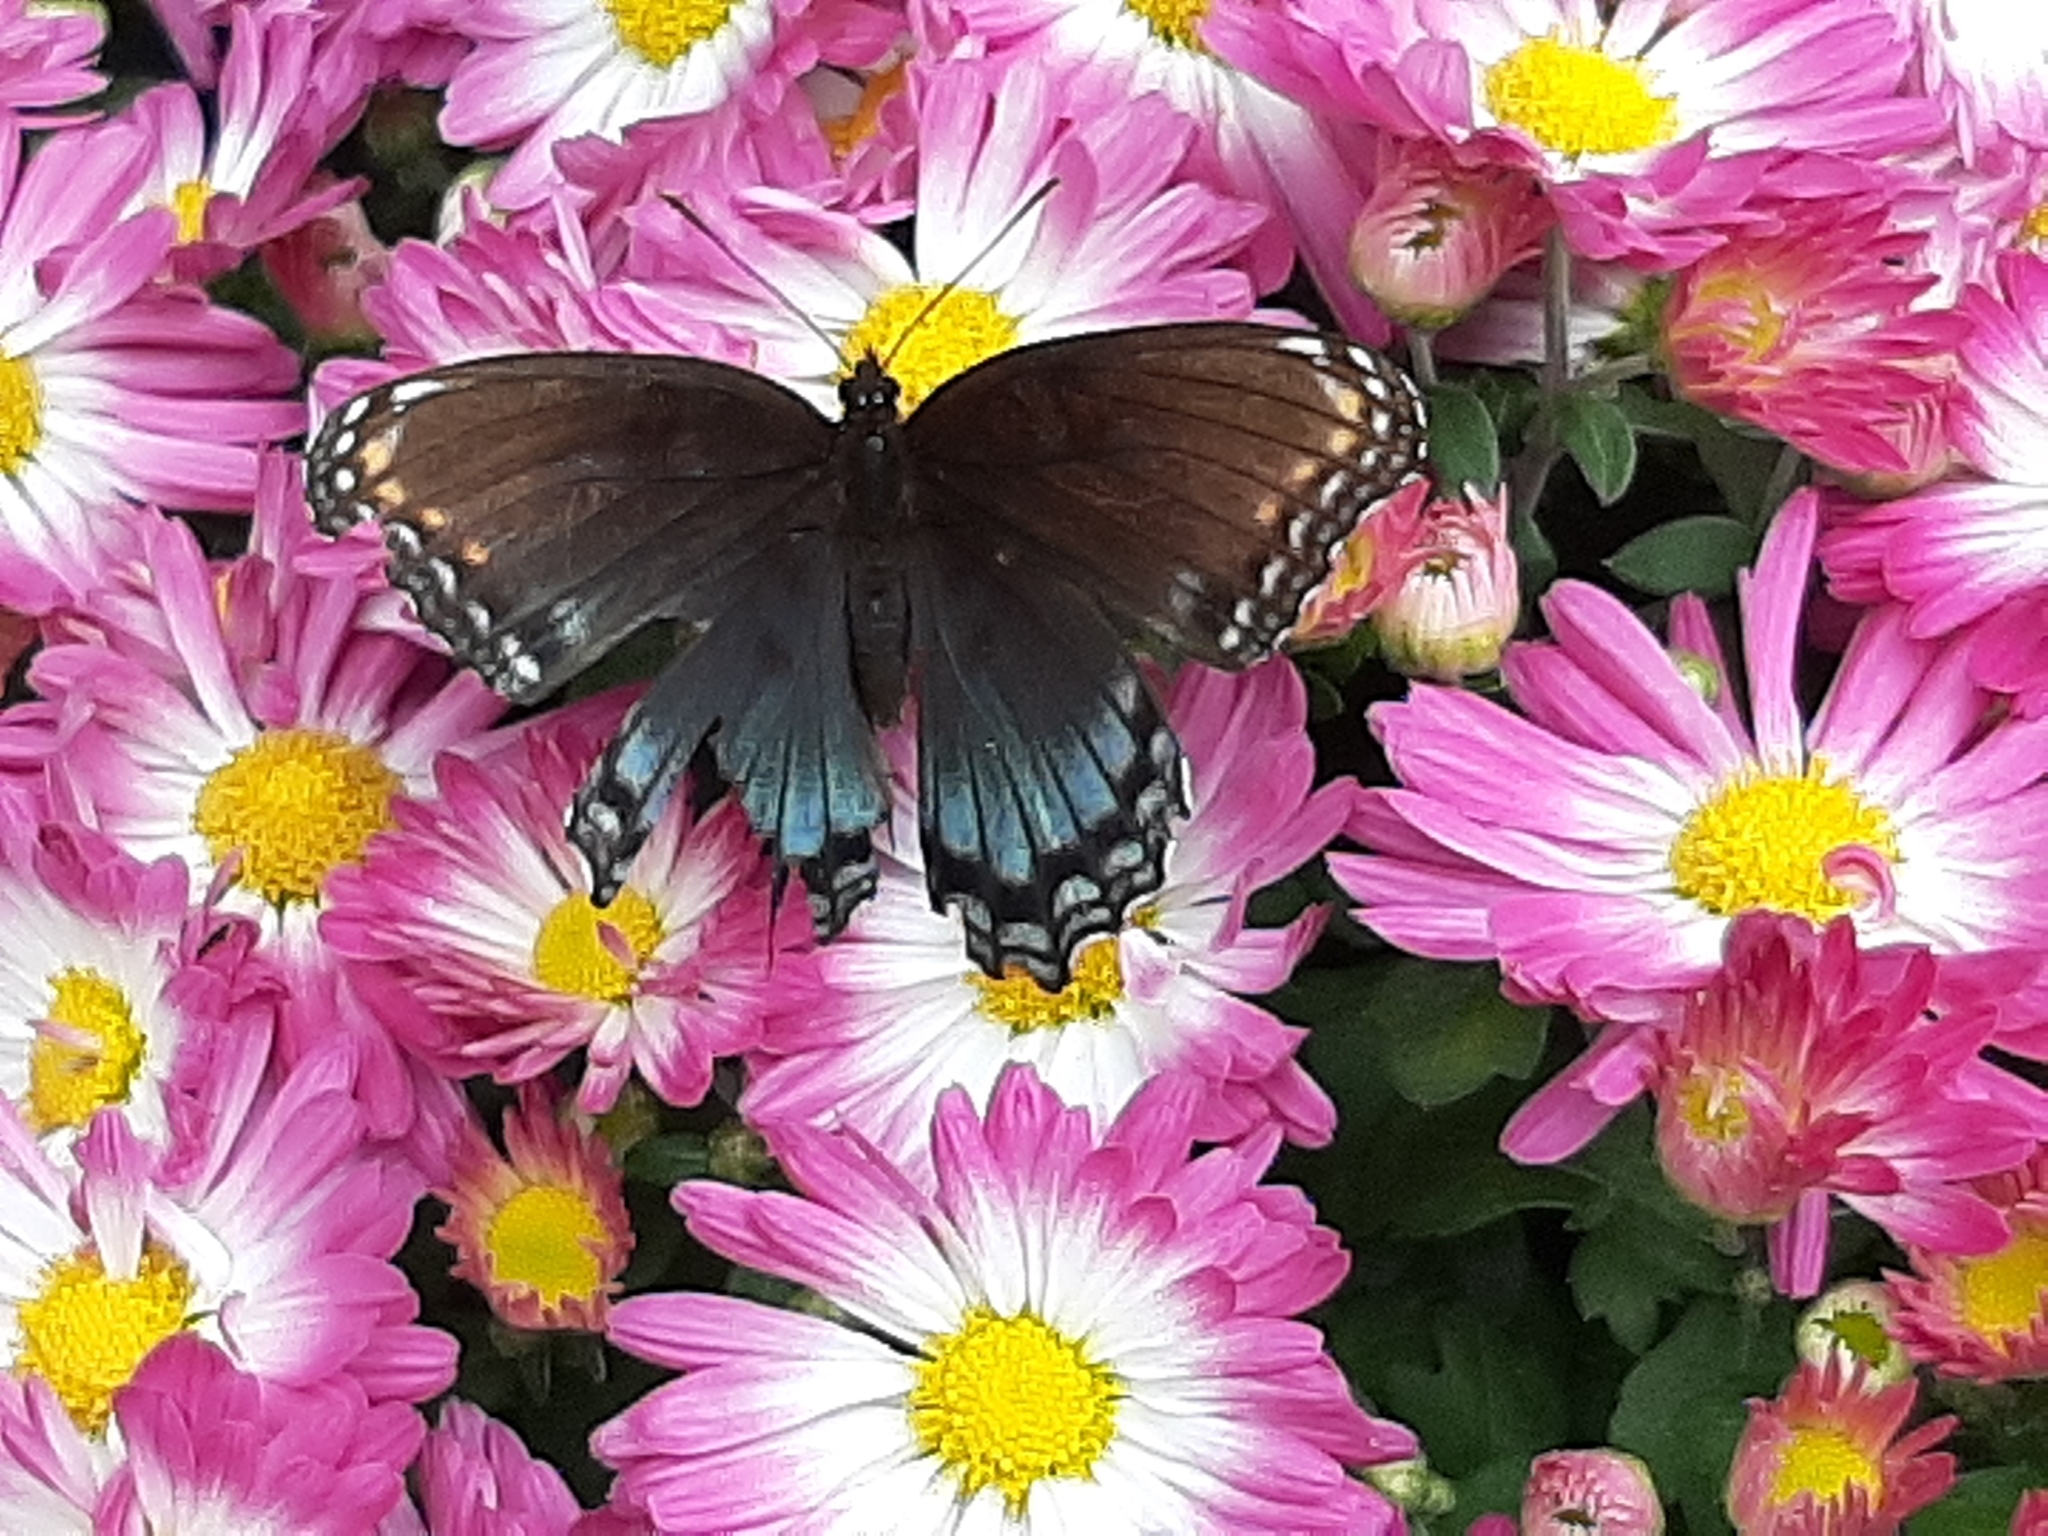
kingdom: Animalia
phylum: Arthropoda
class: Insecta
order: Lepidoptera
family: Nymphalidae
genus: Limenitis
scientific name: Limenitis astyanax
